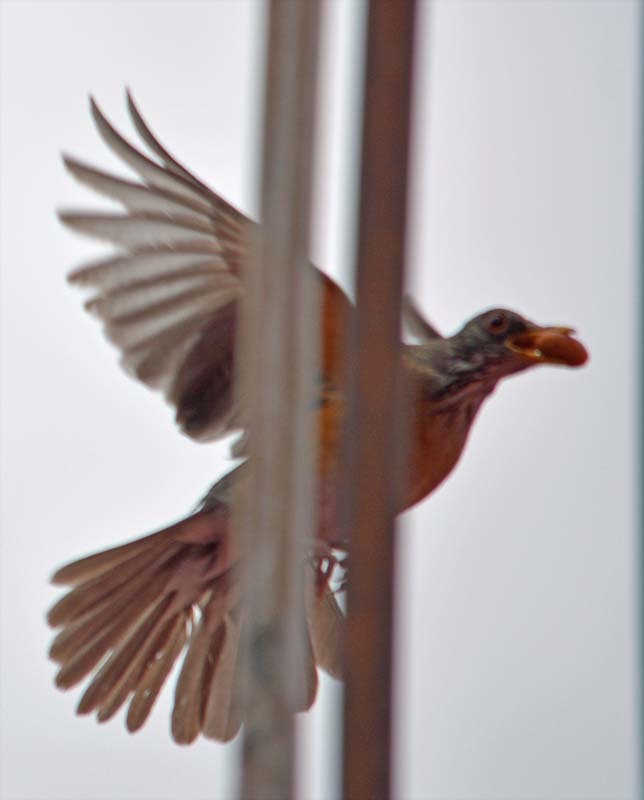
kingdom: Animalia
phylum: Chordata
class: Aves
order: Passeriformes
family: Turdidae
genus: Turdus
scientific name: Turdus rufopalliatus
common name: Rufous-backed robin
